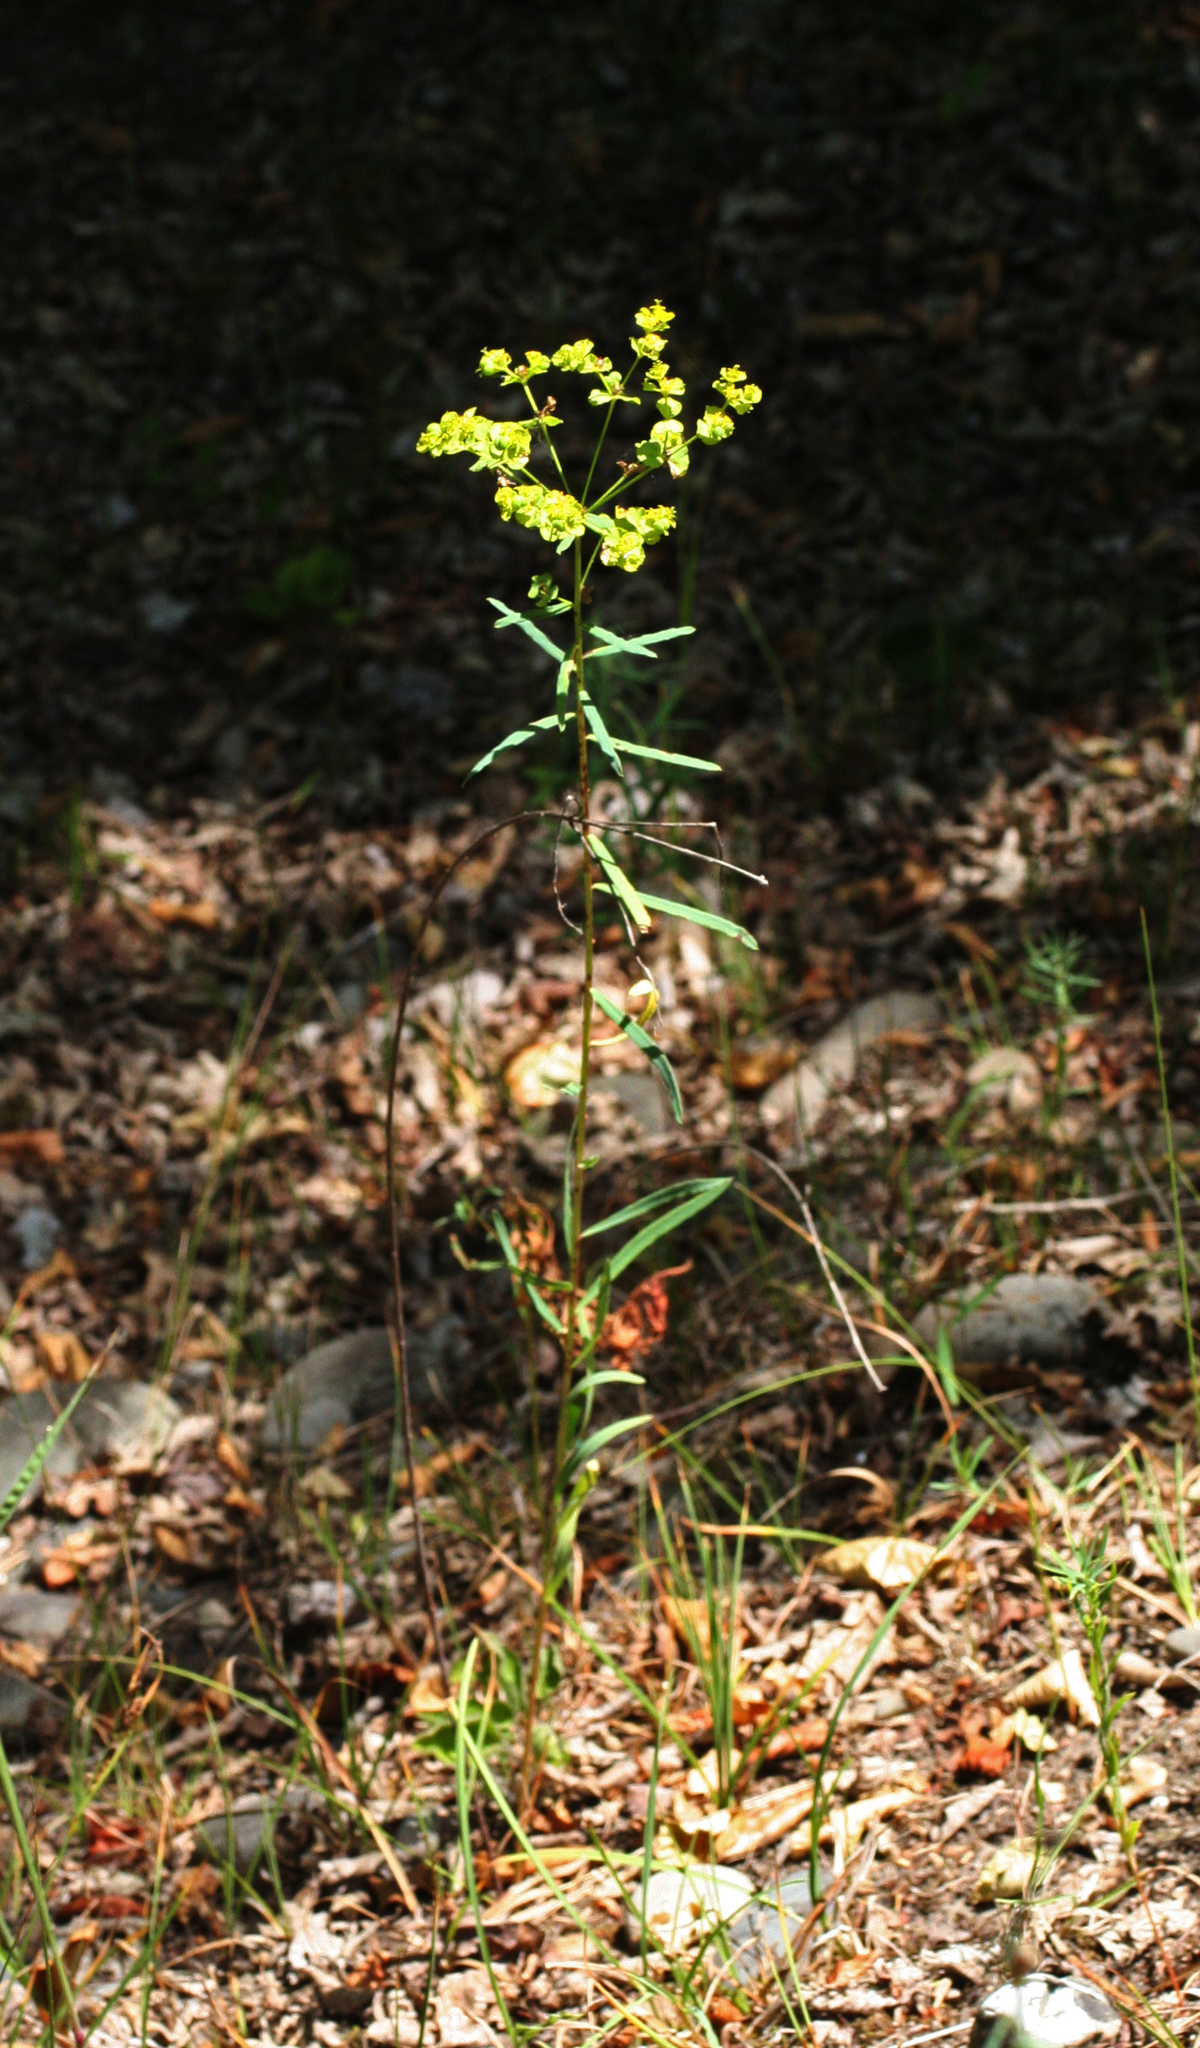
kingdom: Plantae
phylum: Tracheophyta
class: Magnoliopsida
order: Malpighiales
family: Euphorbiaceae
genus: Euphorbia
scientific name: Euphorbia virgata
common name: Leafy spurge
